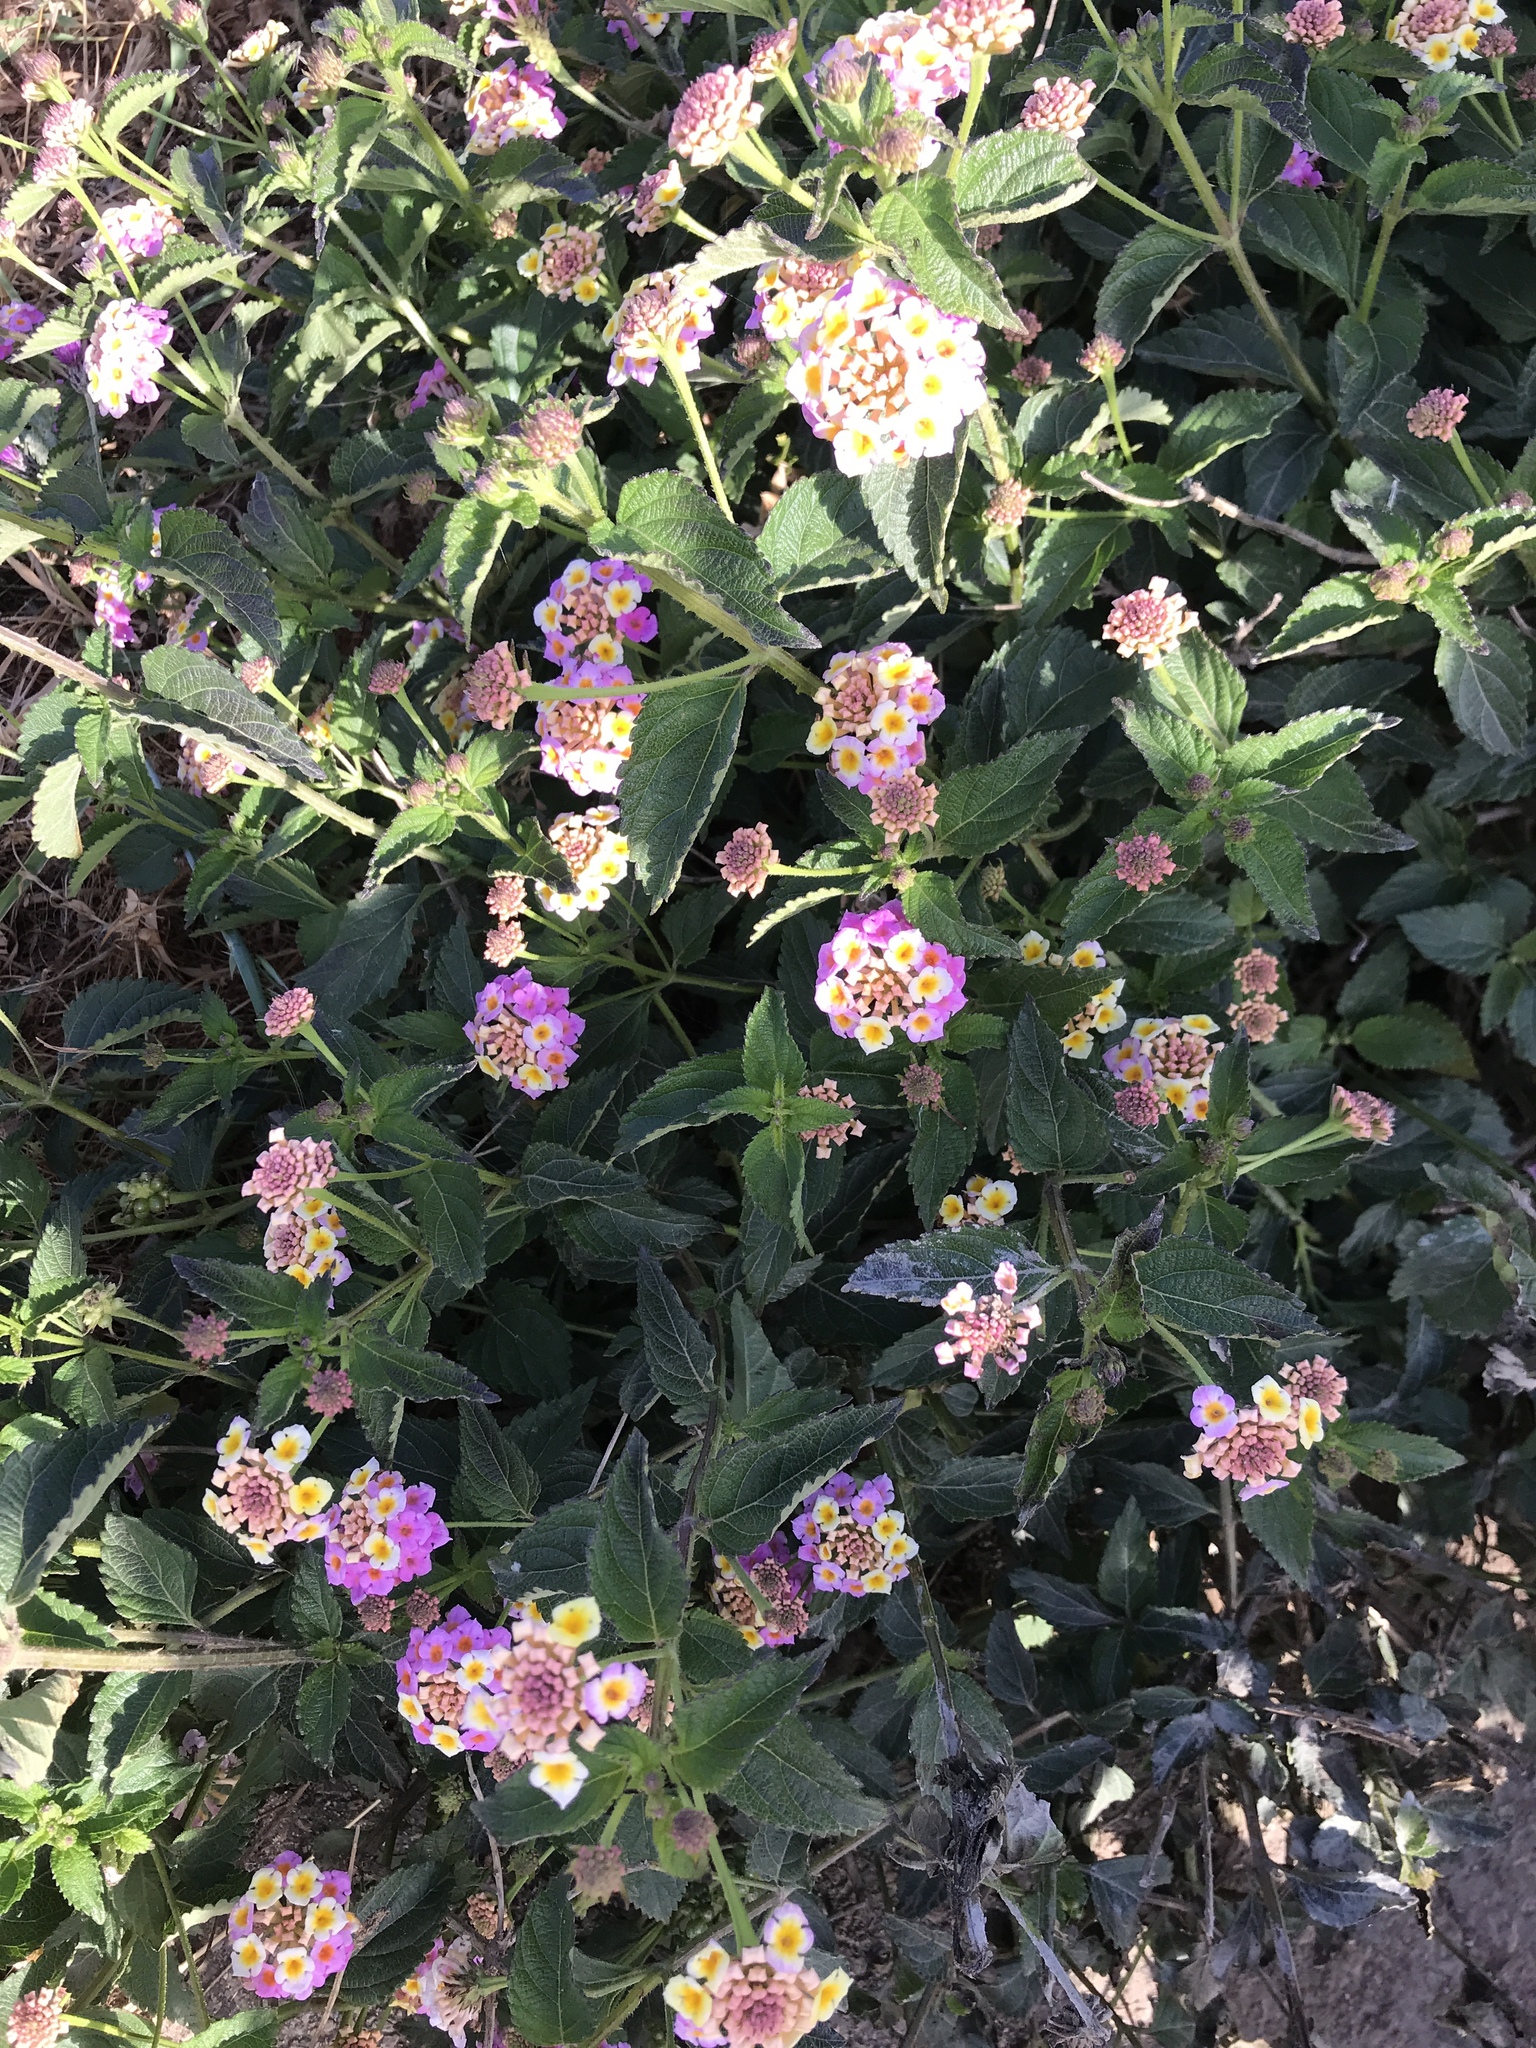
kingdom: Plantae
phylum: Tracheophyta
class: Magnoliopsida
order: Lamiales
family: Verbenaceae
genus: Lantana
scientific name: Lantana camara
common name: Lantana
